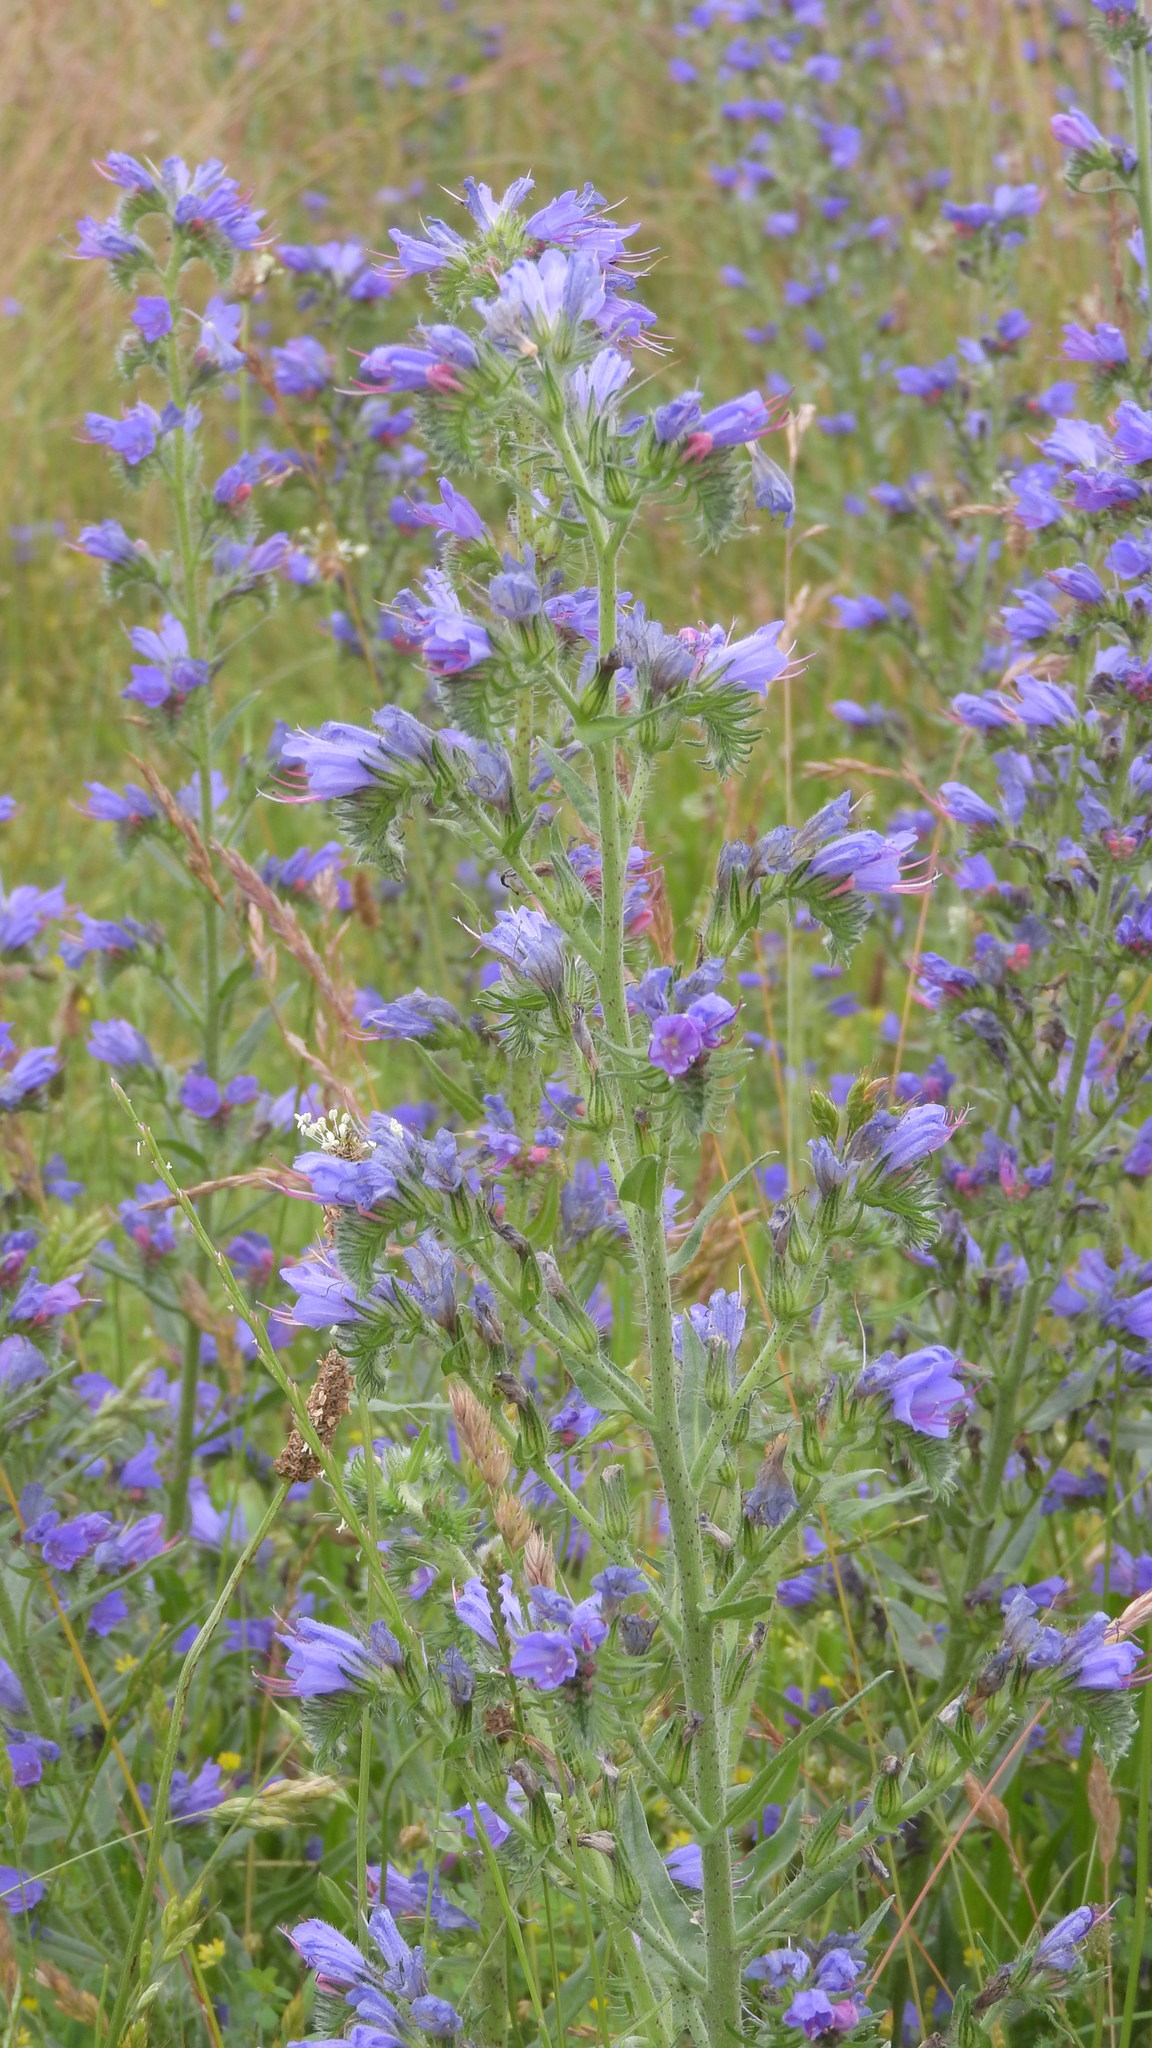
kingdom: Plantae
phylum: Tracheophyta
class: Magnoliopsida
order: Boraginales
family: Boraginaceae
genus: Echium
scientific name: Echium vulgare
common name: Common viper's bugloss
